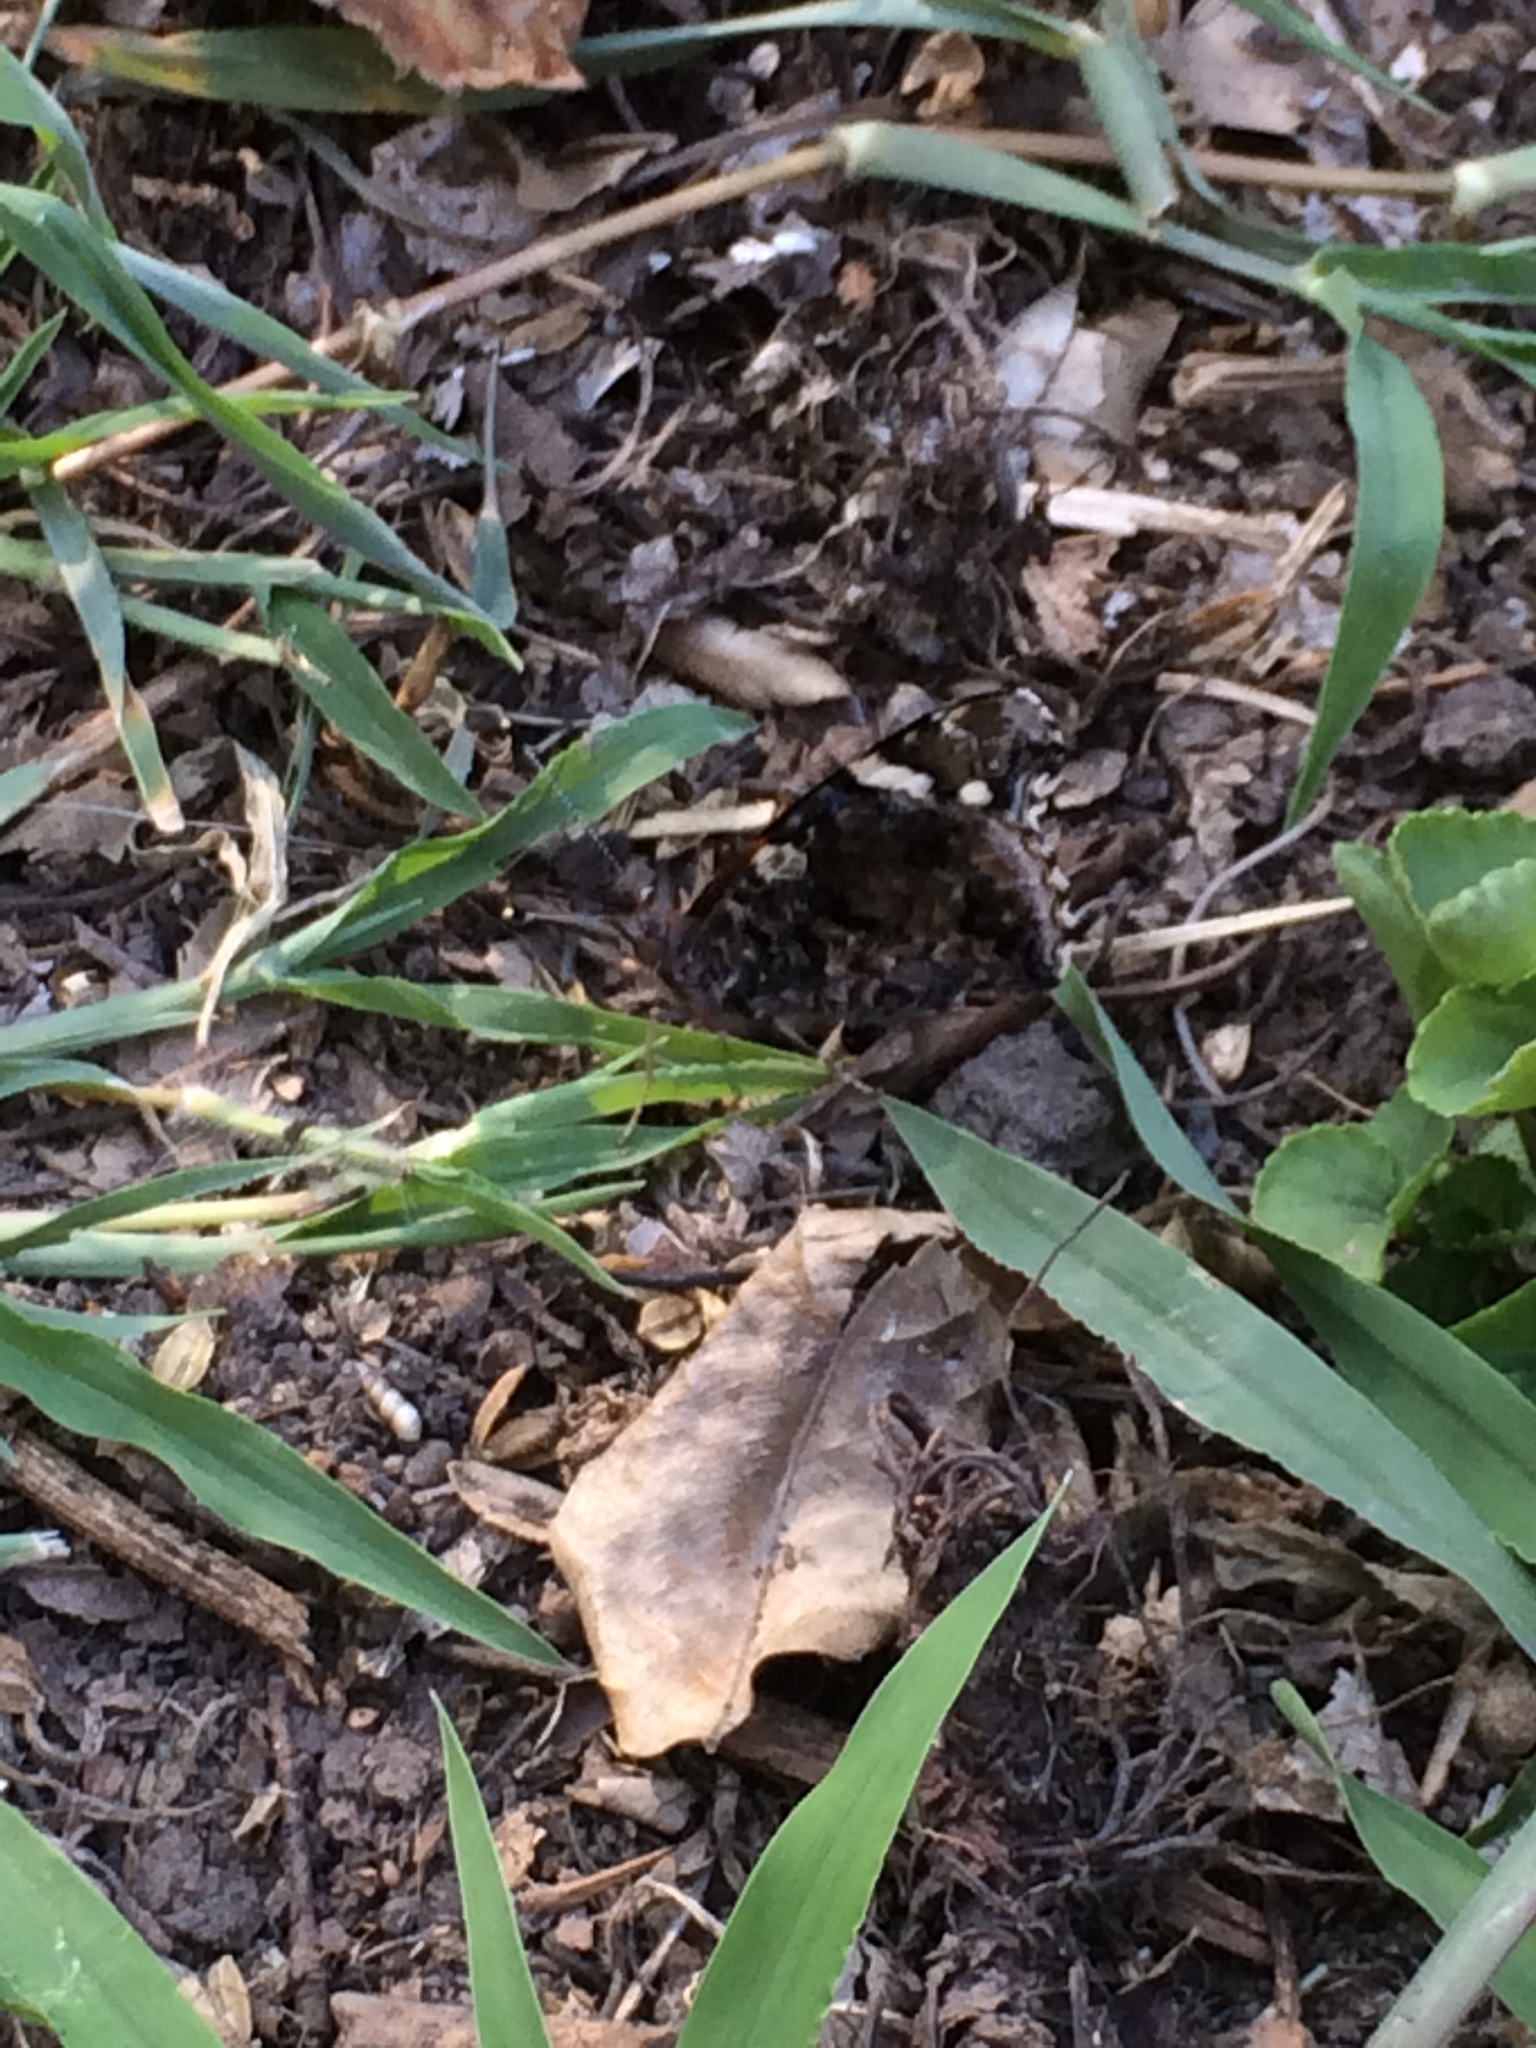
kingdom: Animalia
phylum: Arthropoda
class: Insecta
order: Lepidoptera
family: Nymphalidae
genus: Vanessa
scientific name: Vanessa atalanta
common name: Red admiral
